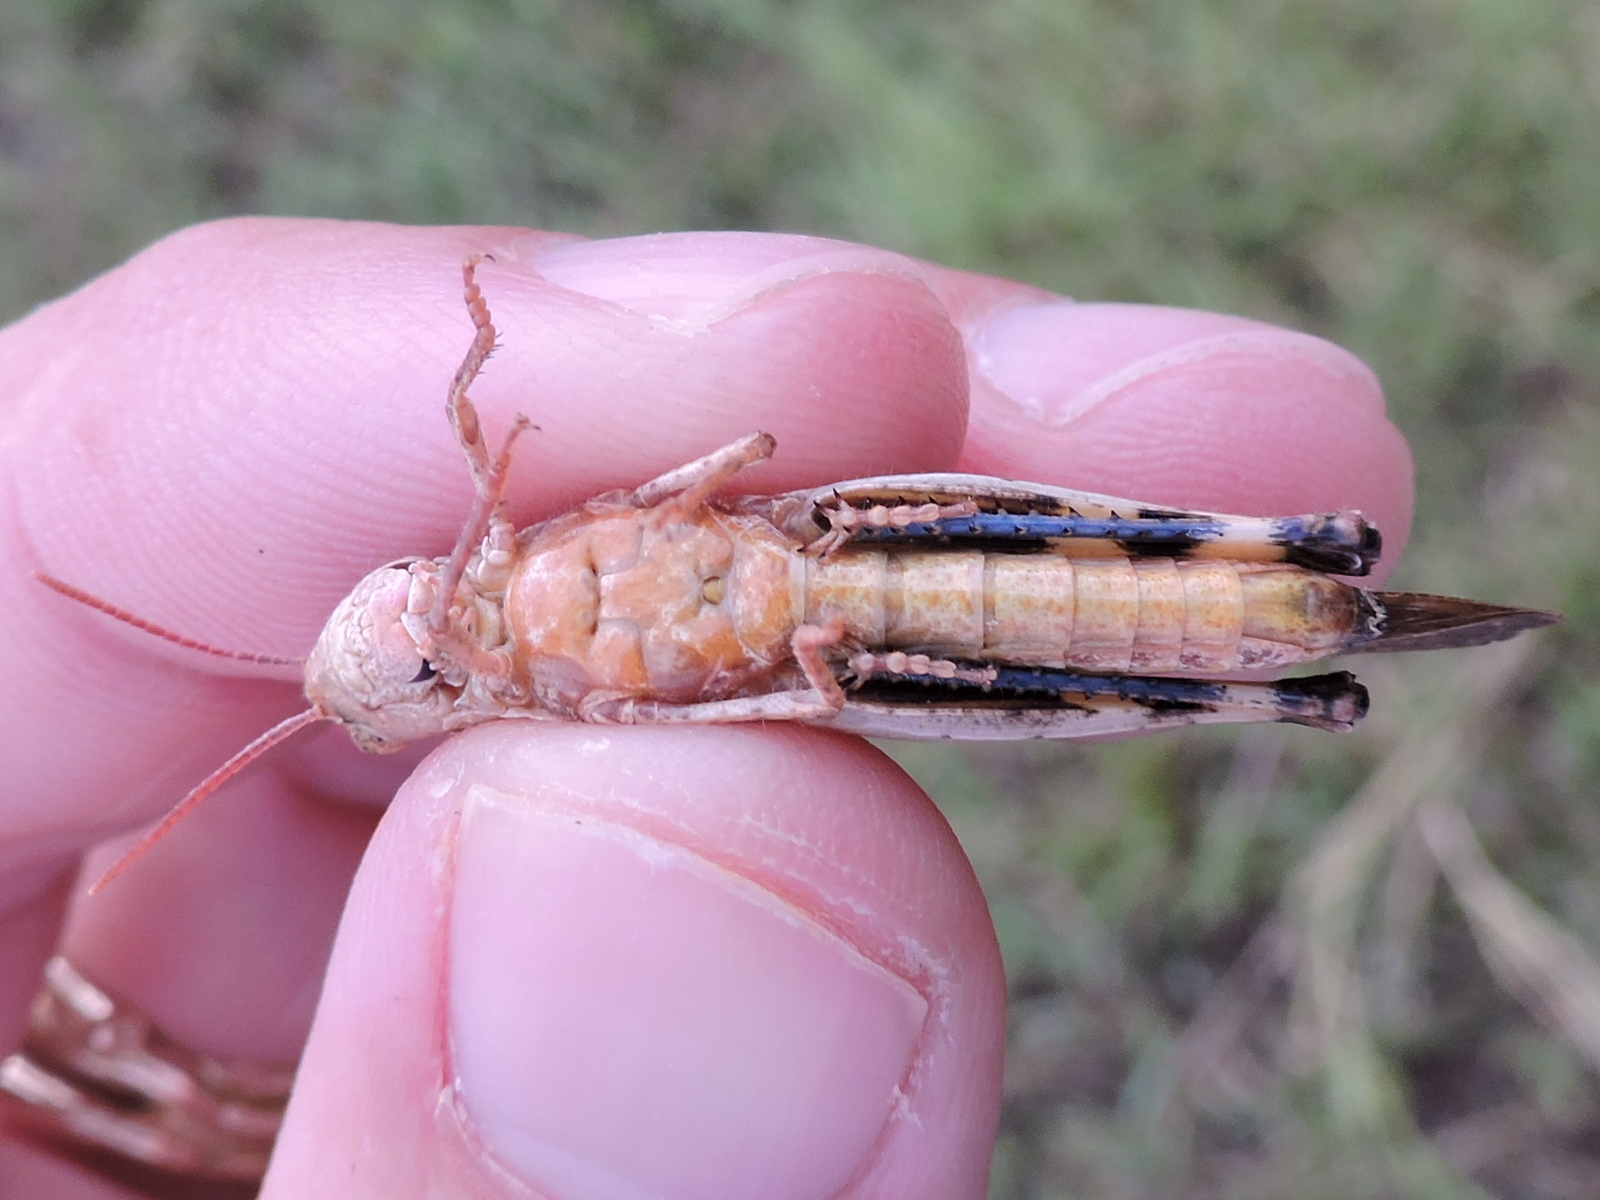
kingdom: Animalia
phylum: Arthropoda
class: Insecta
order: Orthoptera
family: Acrididae
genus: Chortophaga
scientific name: Chortophaga viridifasciata
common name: Green-striped grasshopper
